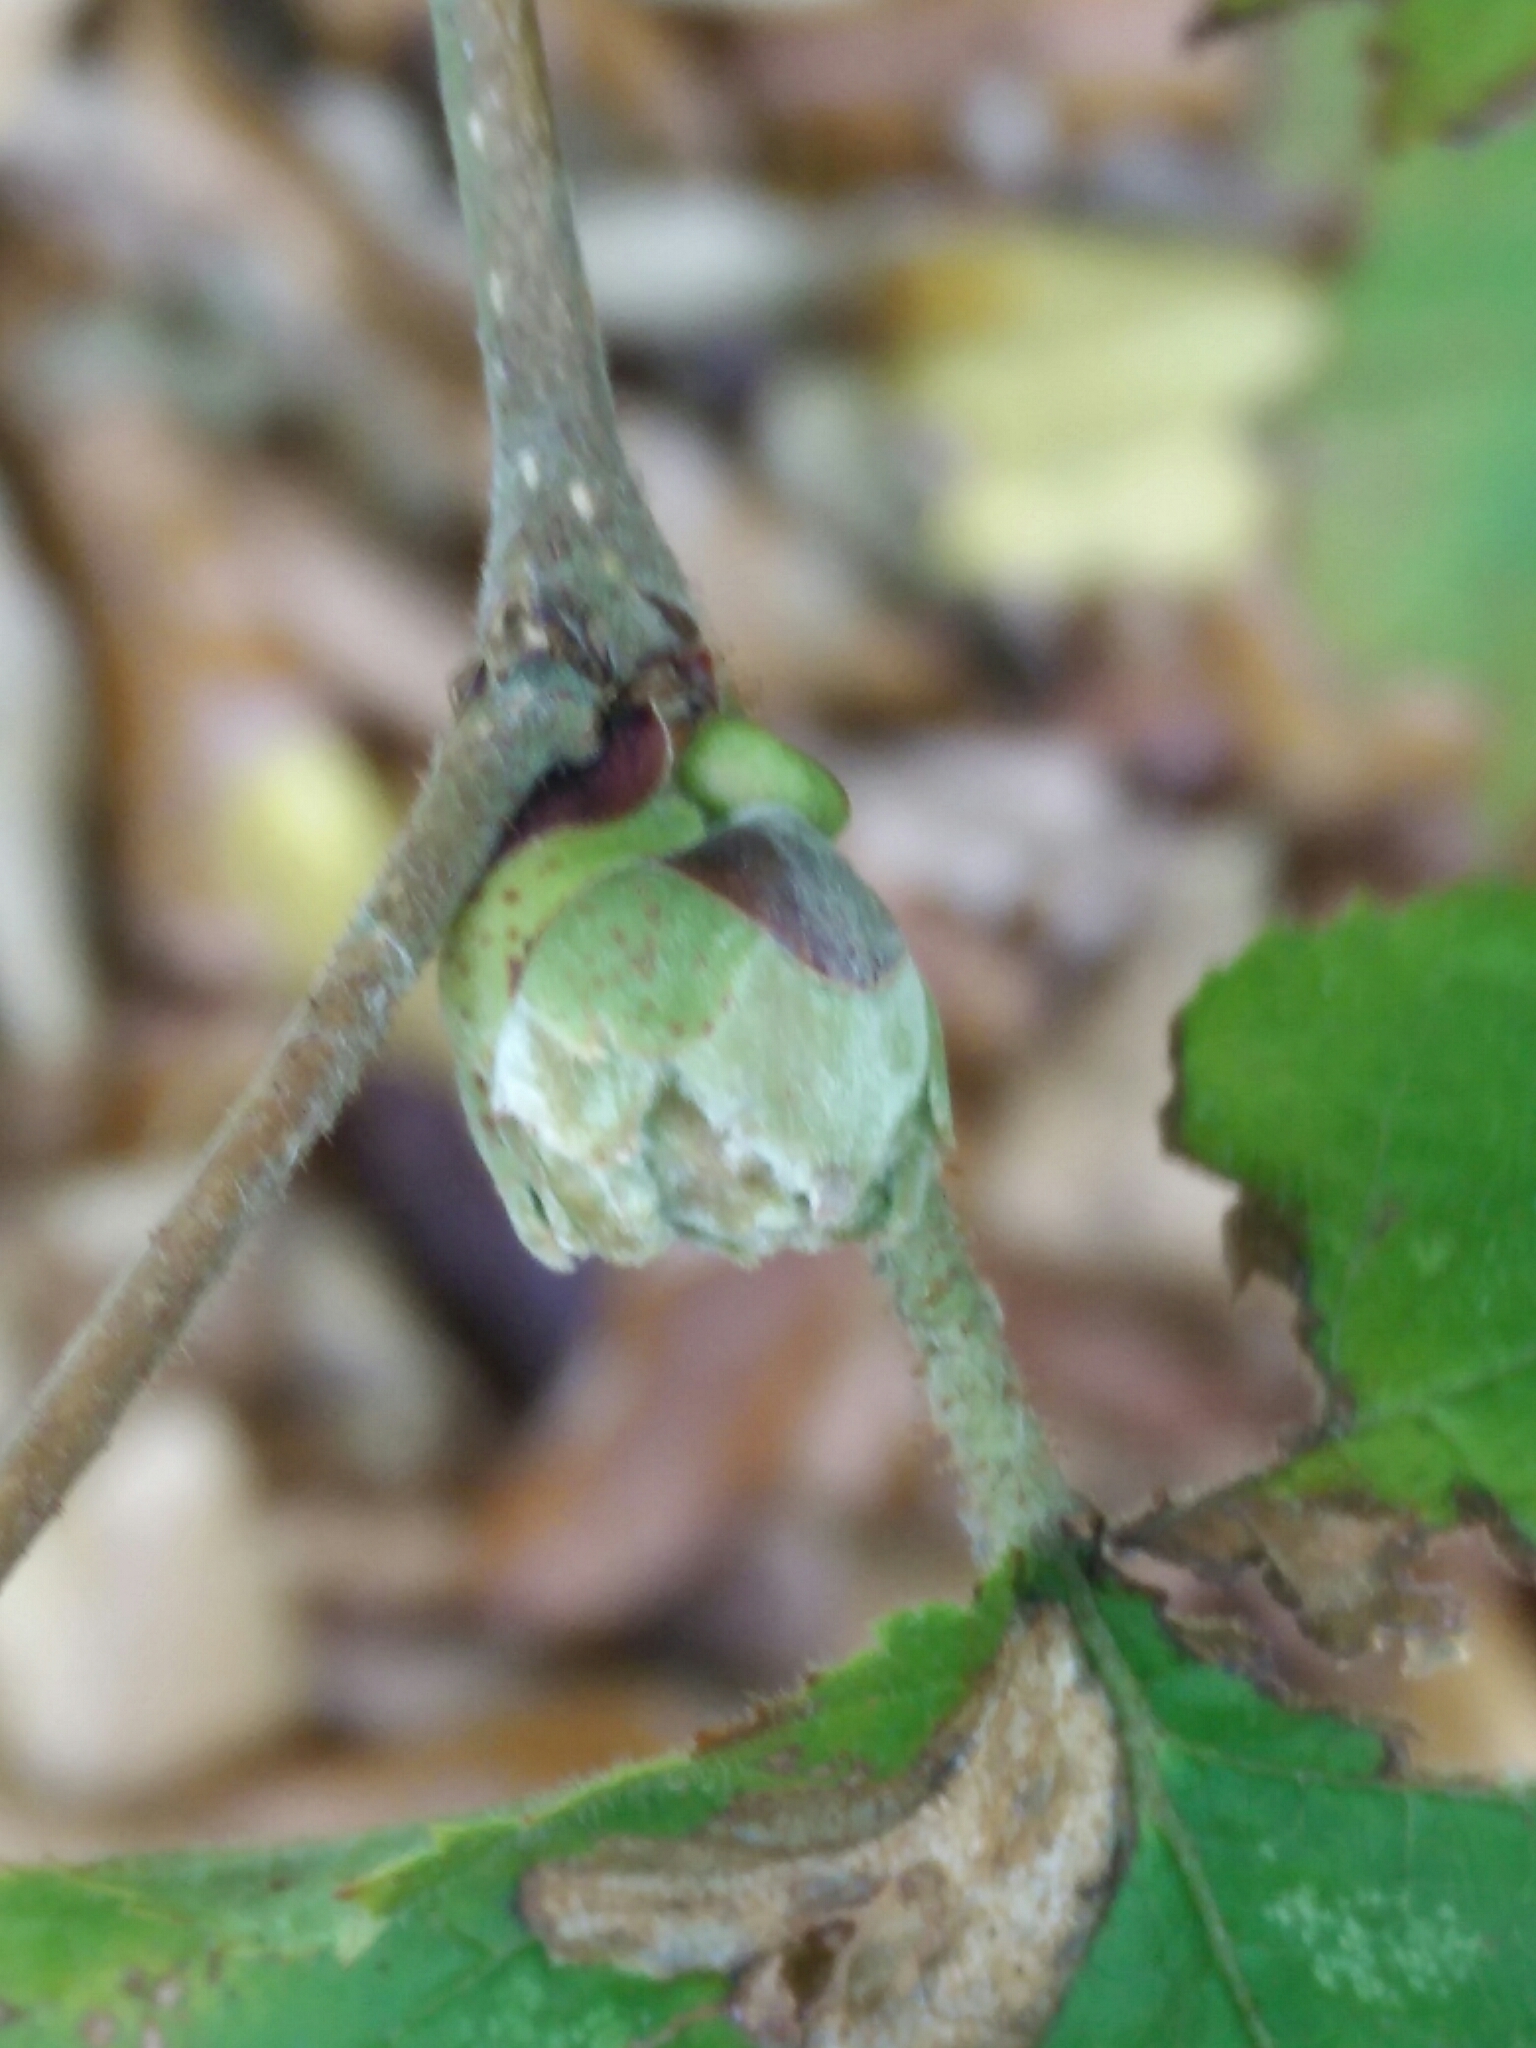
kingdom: Animalia
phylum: Arthropoda
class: Arachnida
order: Trombidiformes
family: Phytoptidae
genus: Phytoptus
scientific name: Phytoptus avellanae
